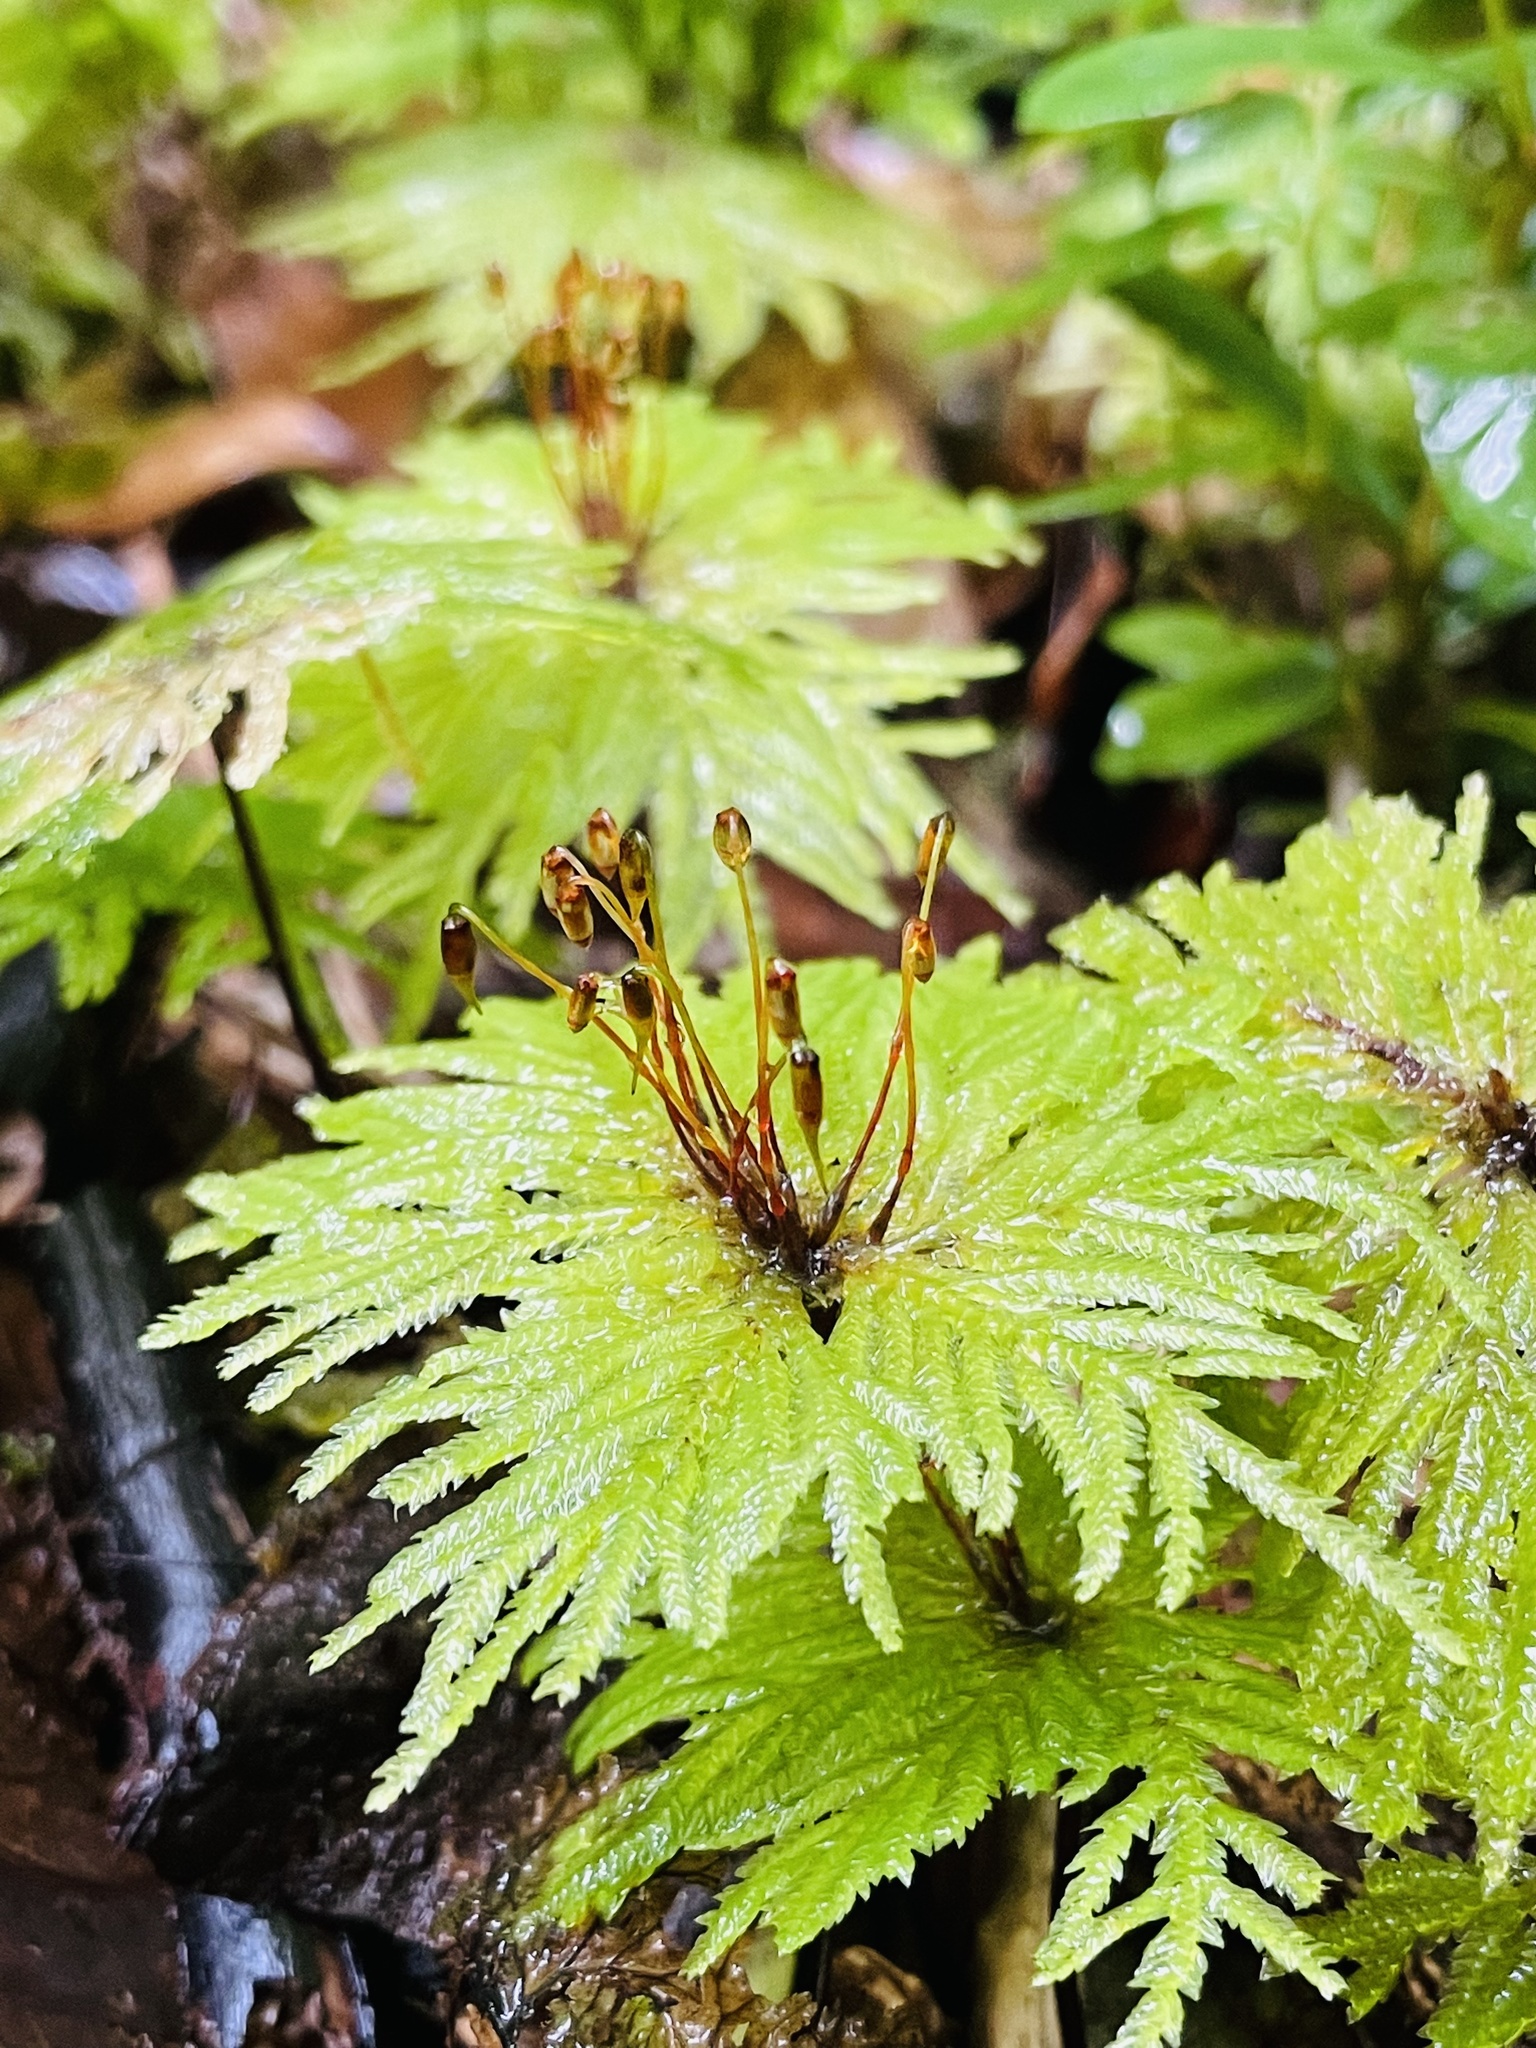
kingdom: Plantae
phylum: Bryophyta
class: Bryopsida
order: Hypopterygiales
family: Hypopterygiaceae
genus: Arbusculohypopterygium
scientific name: Arbusculohypopterygium arbuscula
